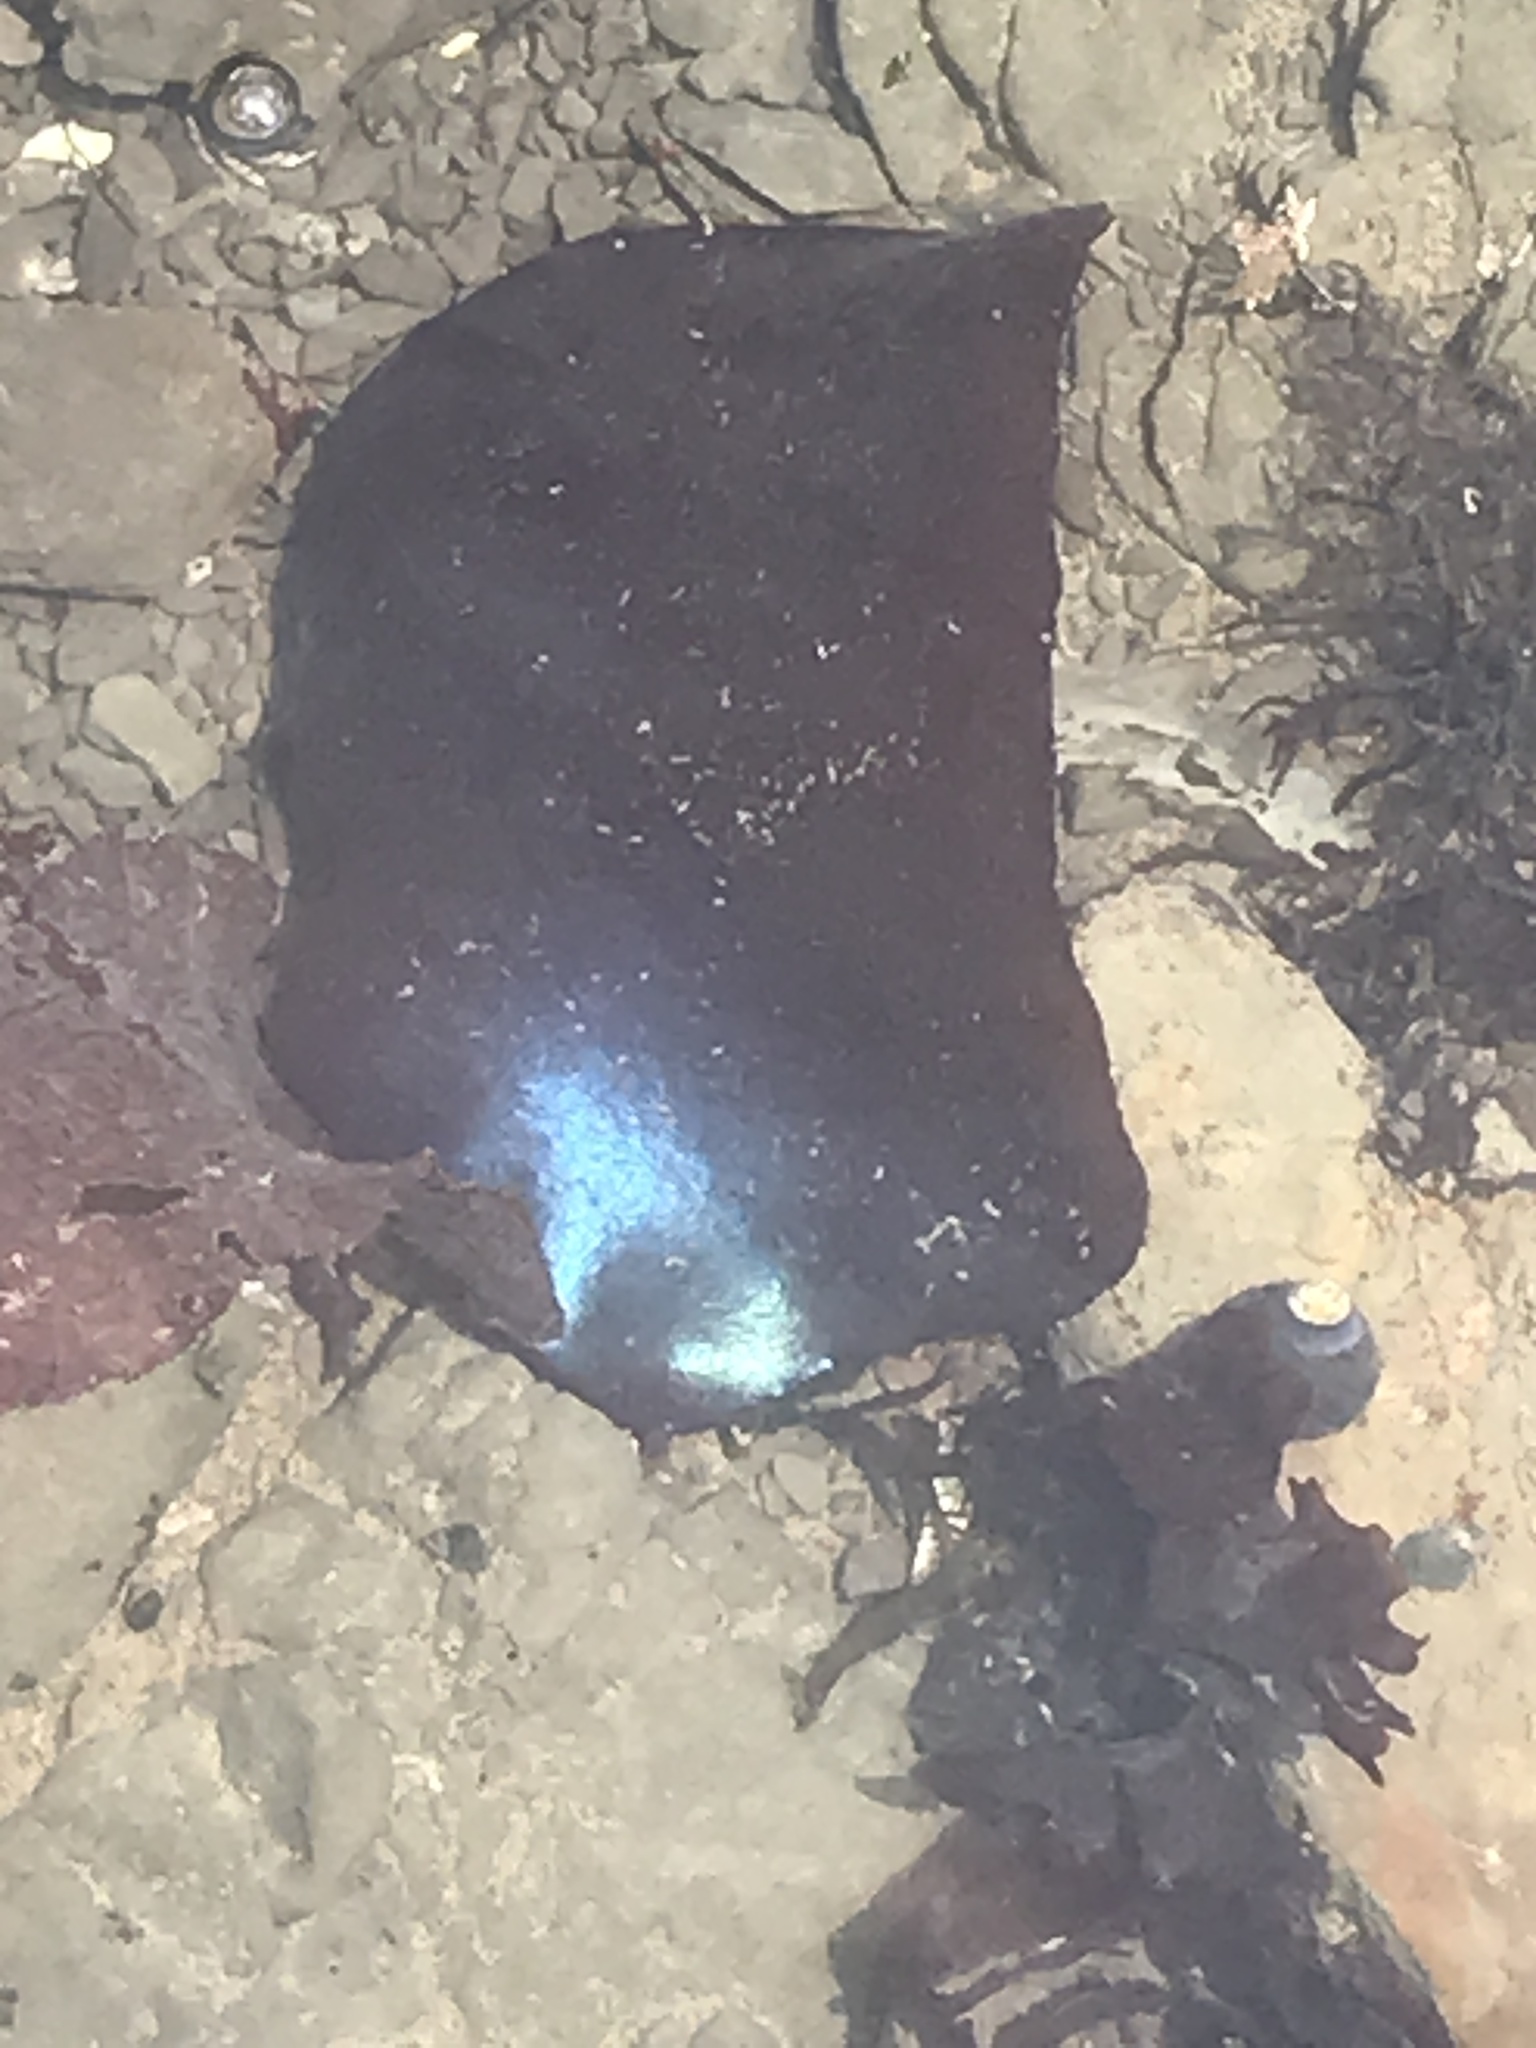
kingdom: Plantae
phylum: Rhodophyta
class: Florideophyceae
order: Gigartinales
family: Gigartinaceae
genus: Mazzaella
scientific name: Mazzaella splendens
